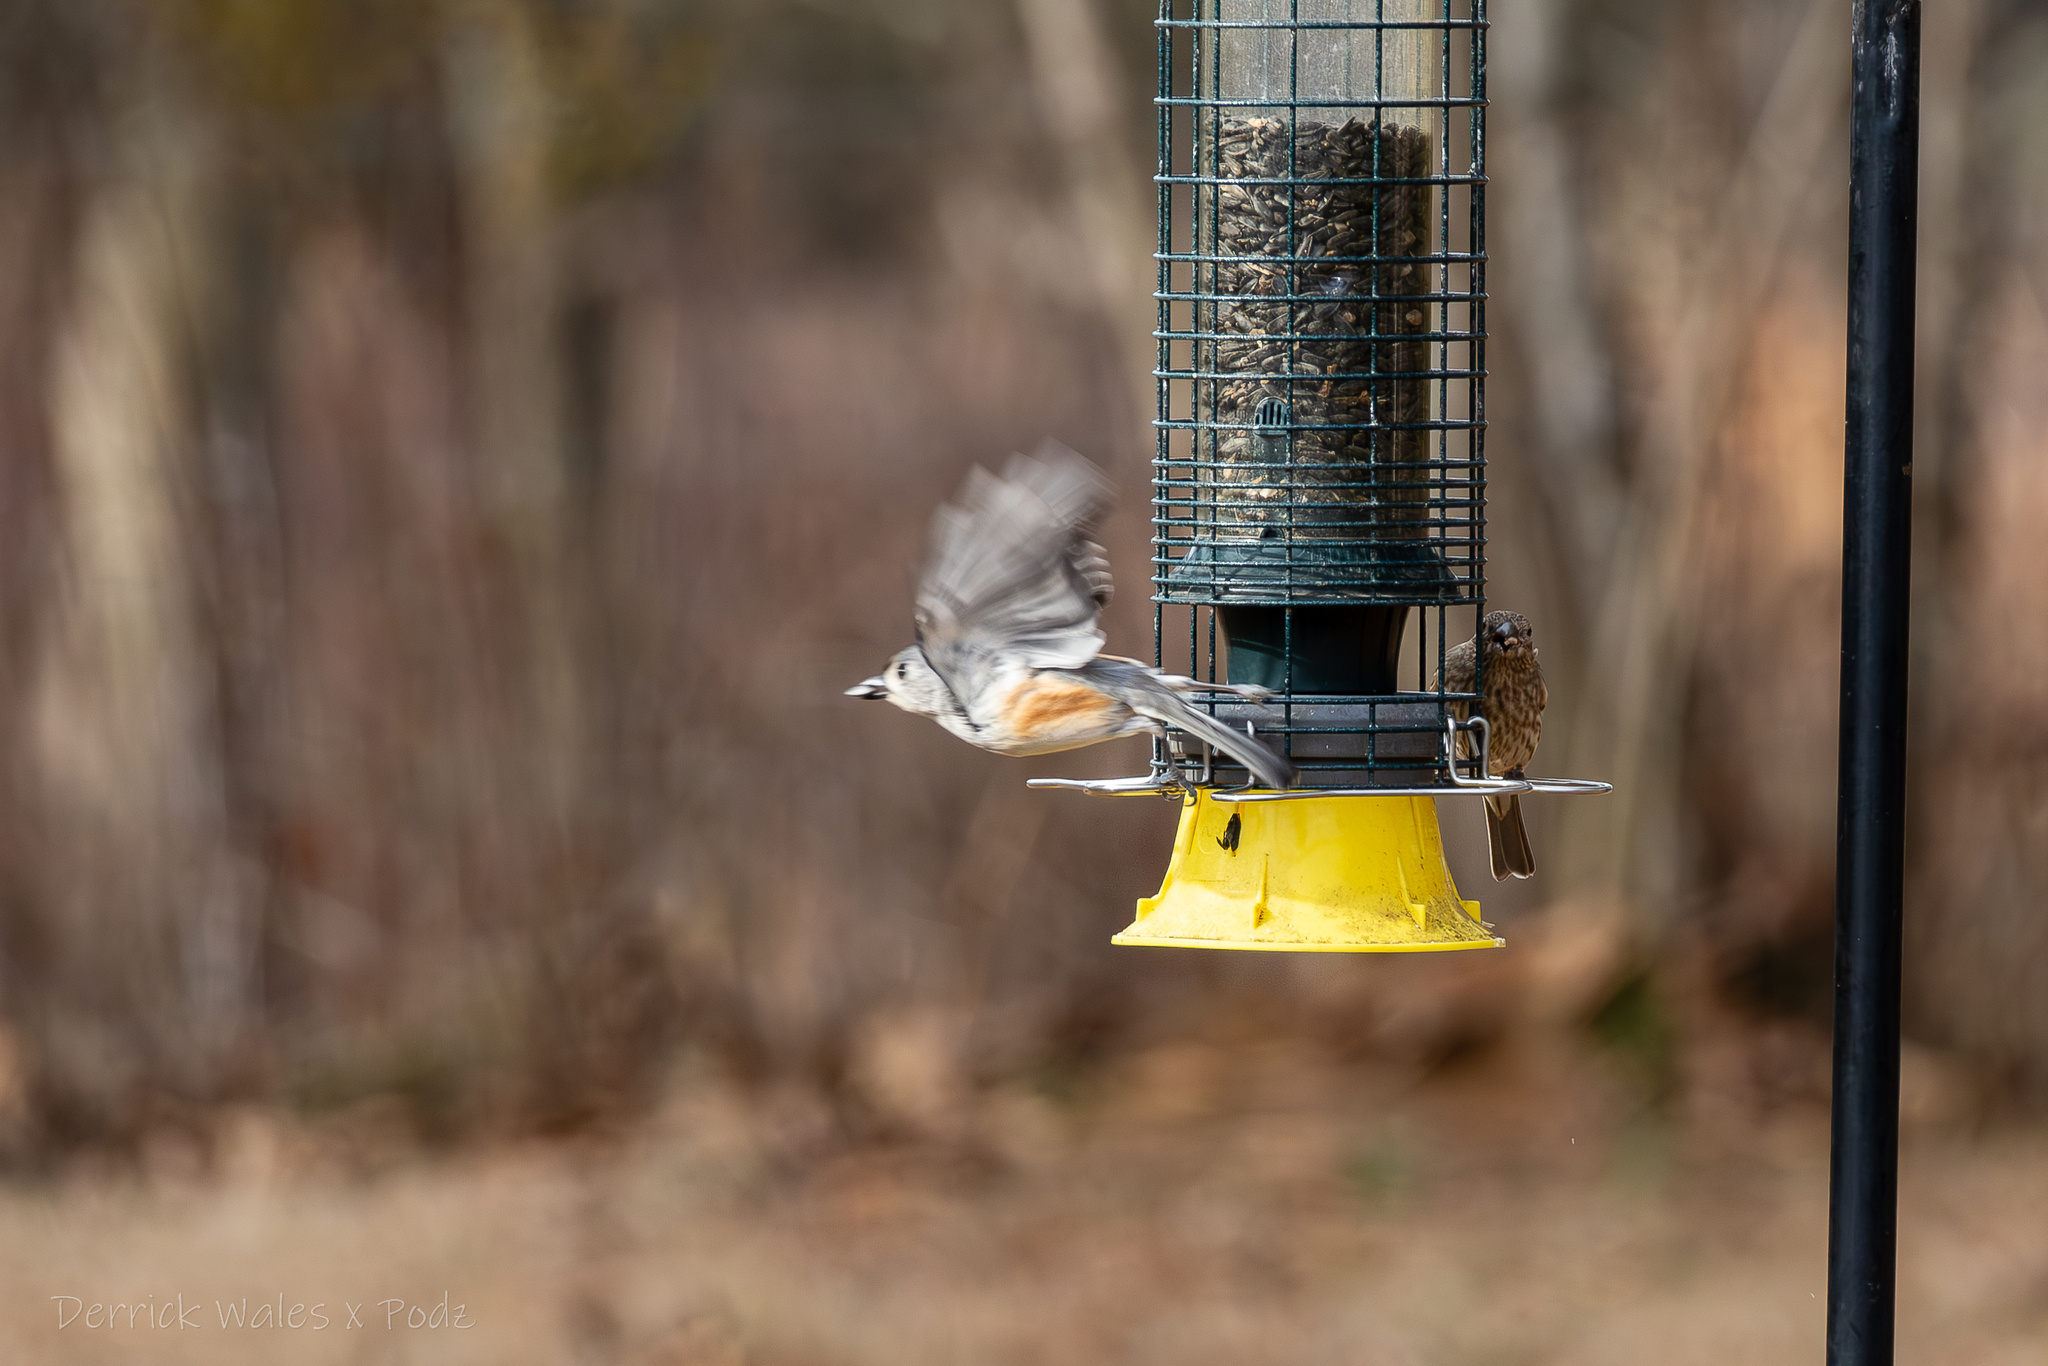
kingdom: Animalia
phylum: Chordata
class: Aves
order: Passeriformes
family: Paridae
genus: Baeolophus
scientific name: Baeolophus bicolor
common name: Tufted titmouse
